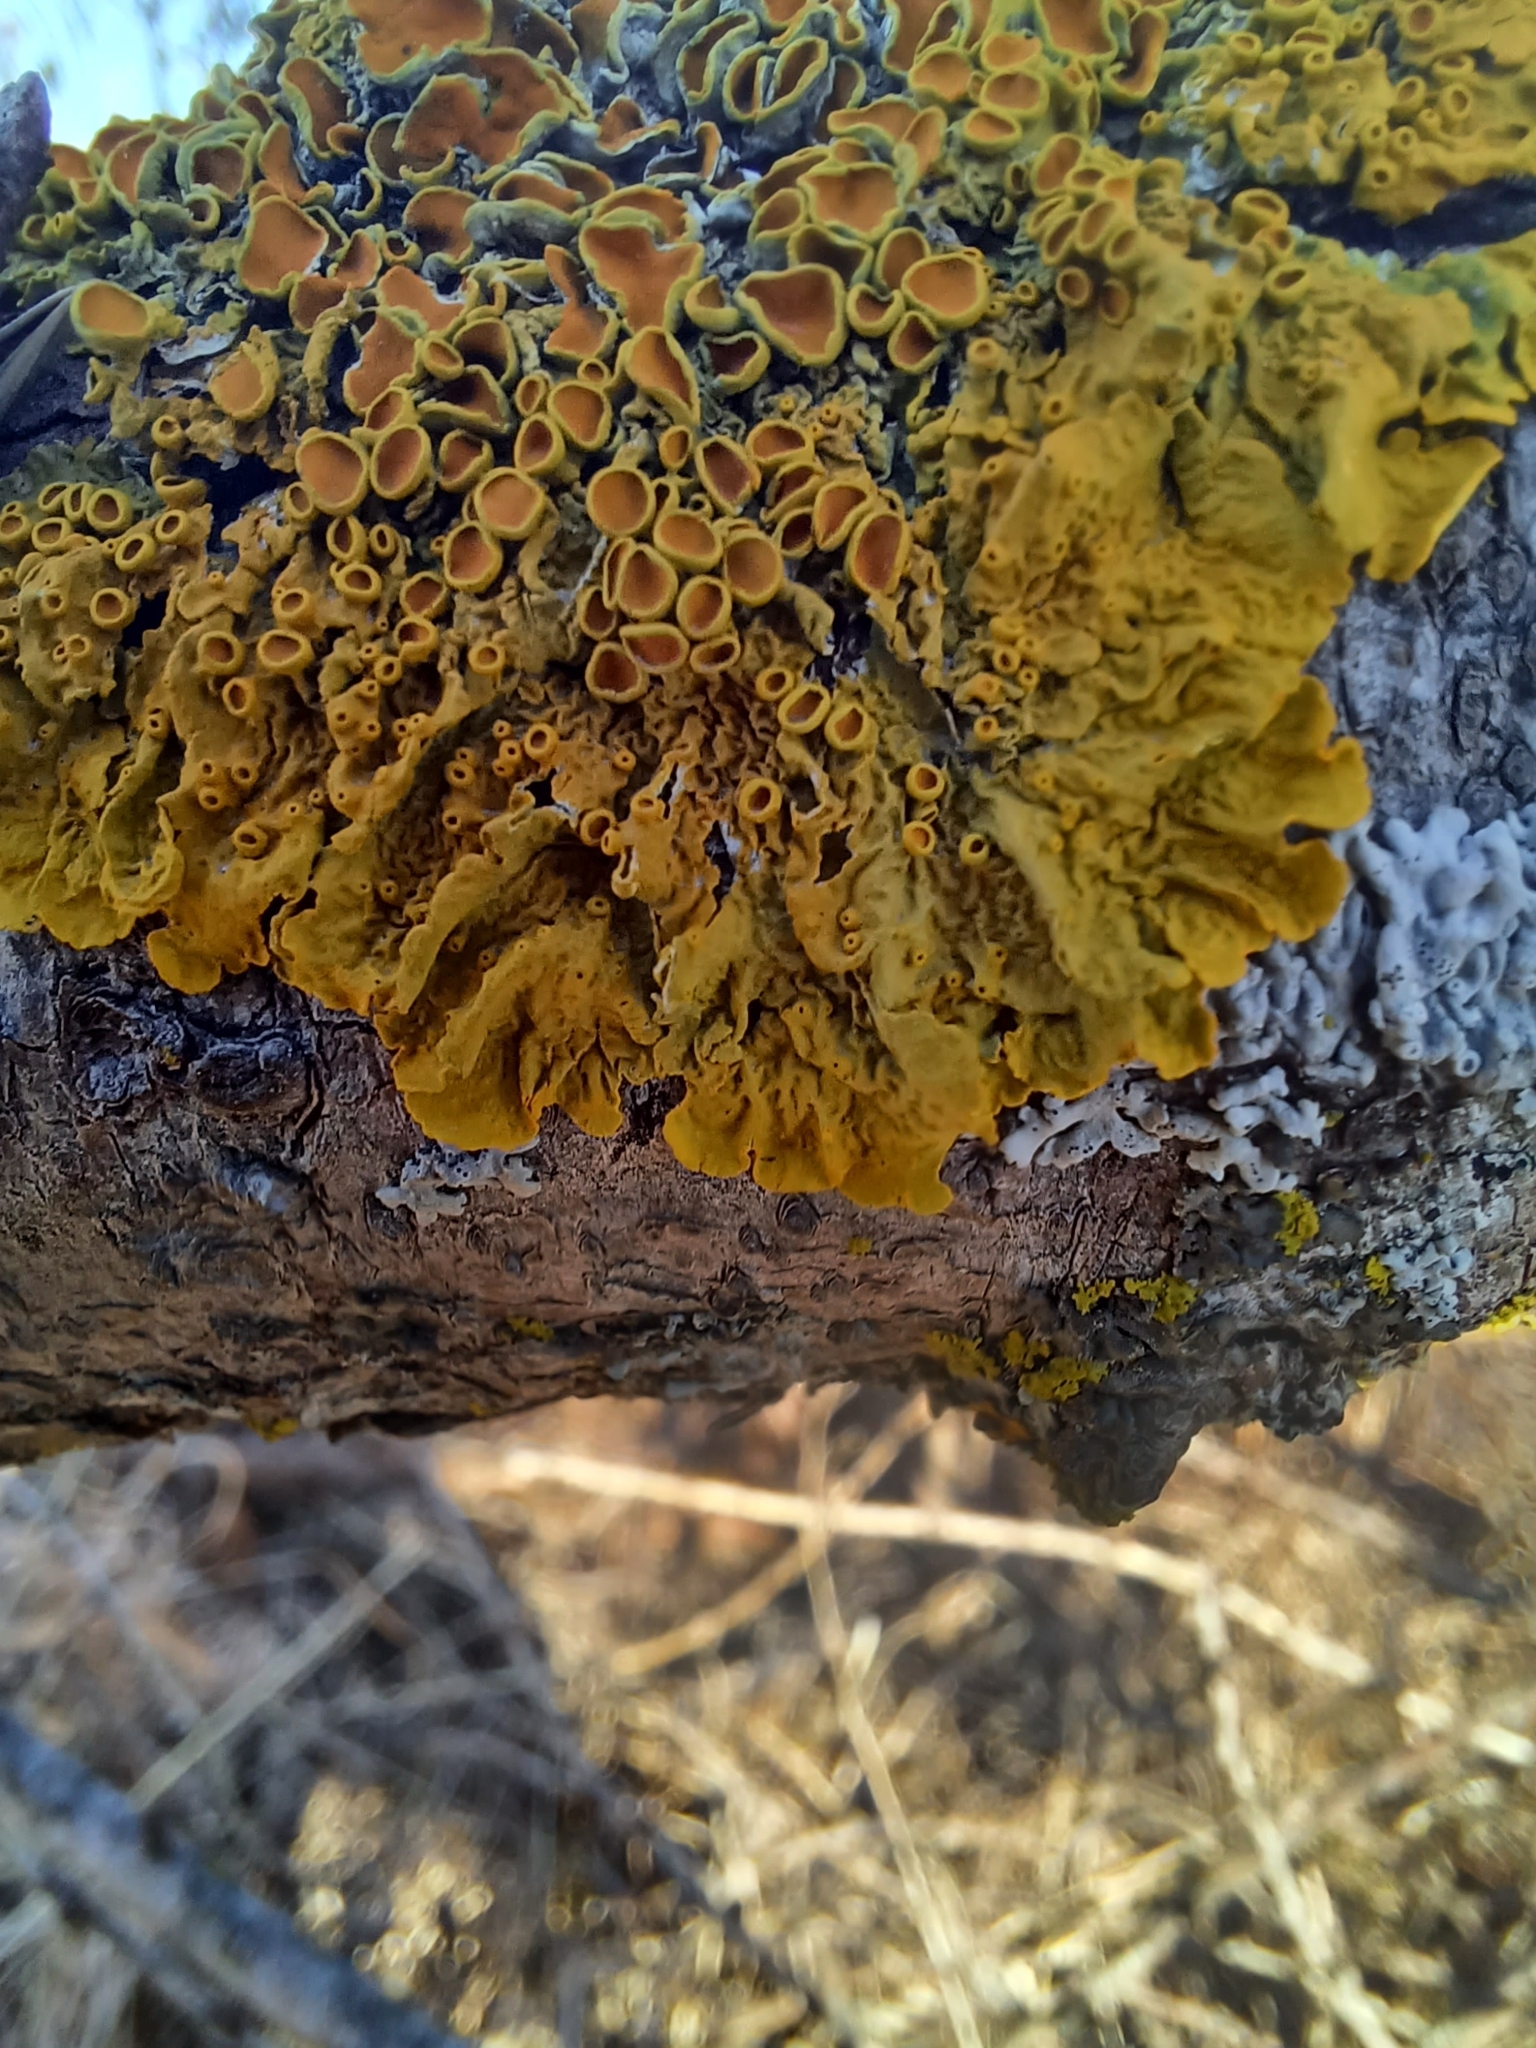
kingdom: Fungi
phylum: Ascomycota
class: Lecanoromycetes
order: Teloschistales
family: Teloschistaceae
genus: Xanthoria
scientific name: Xanthoria parietina
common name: Common orange lichen
